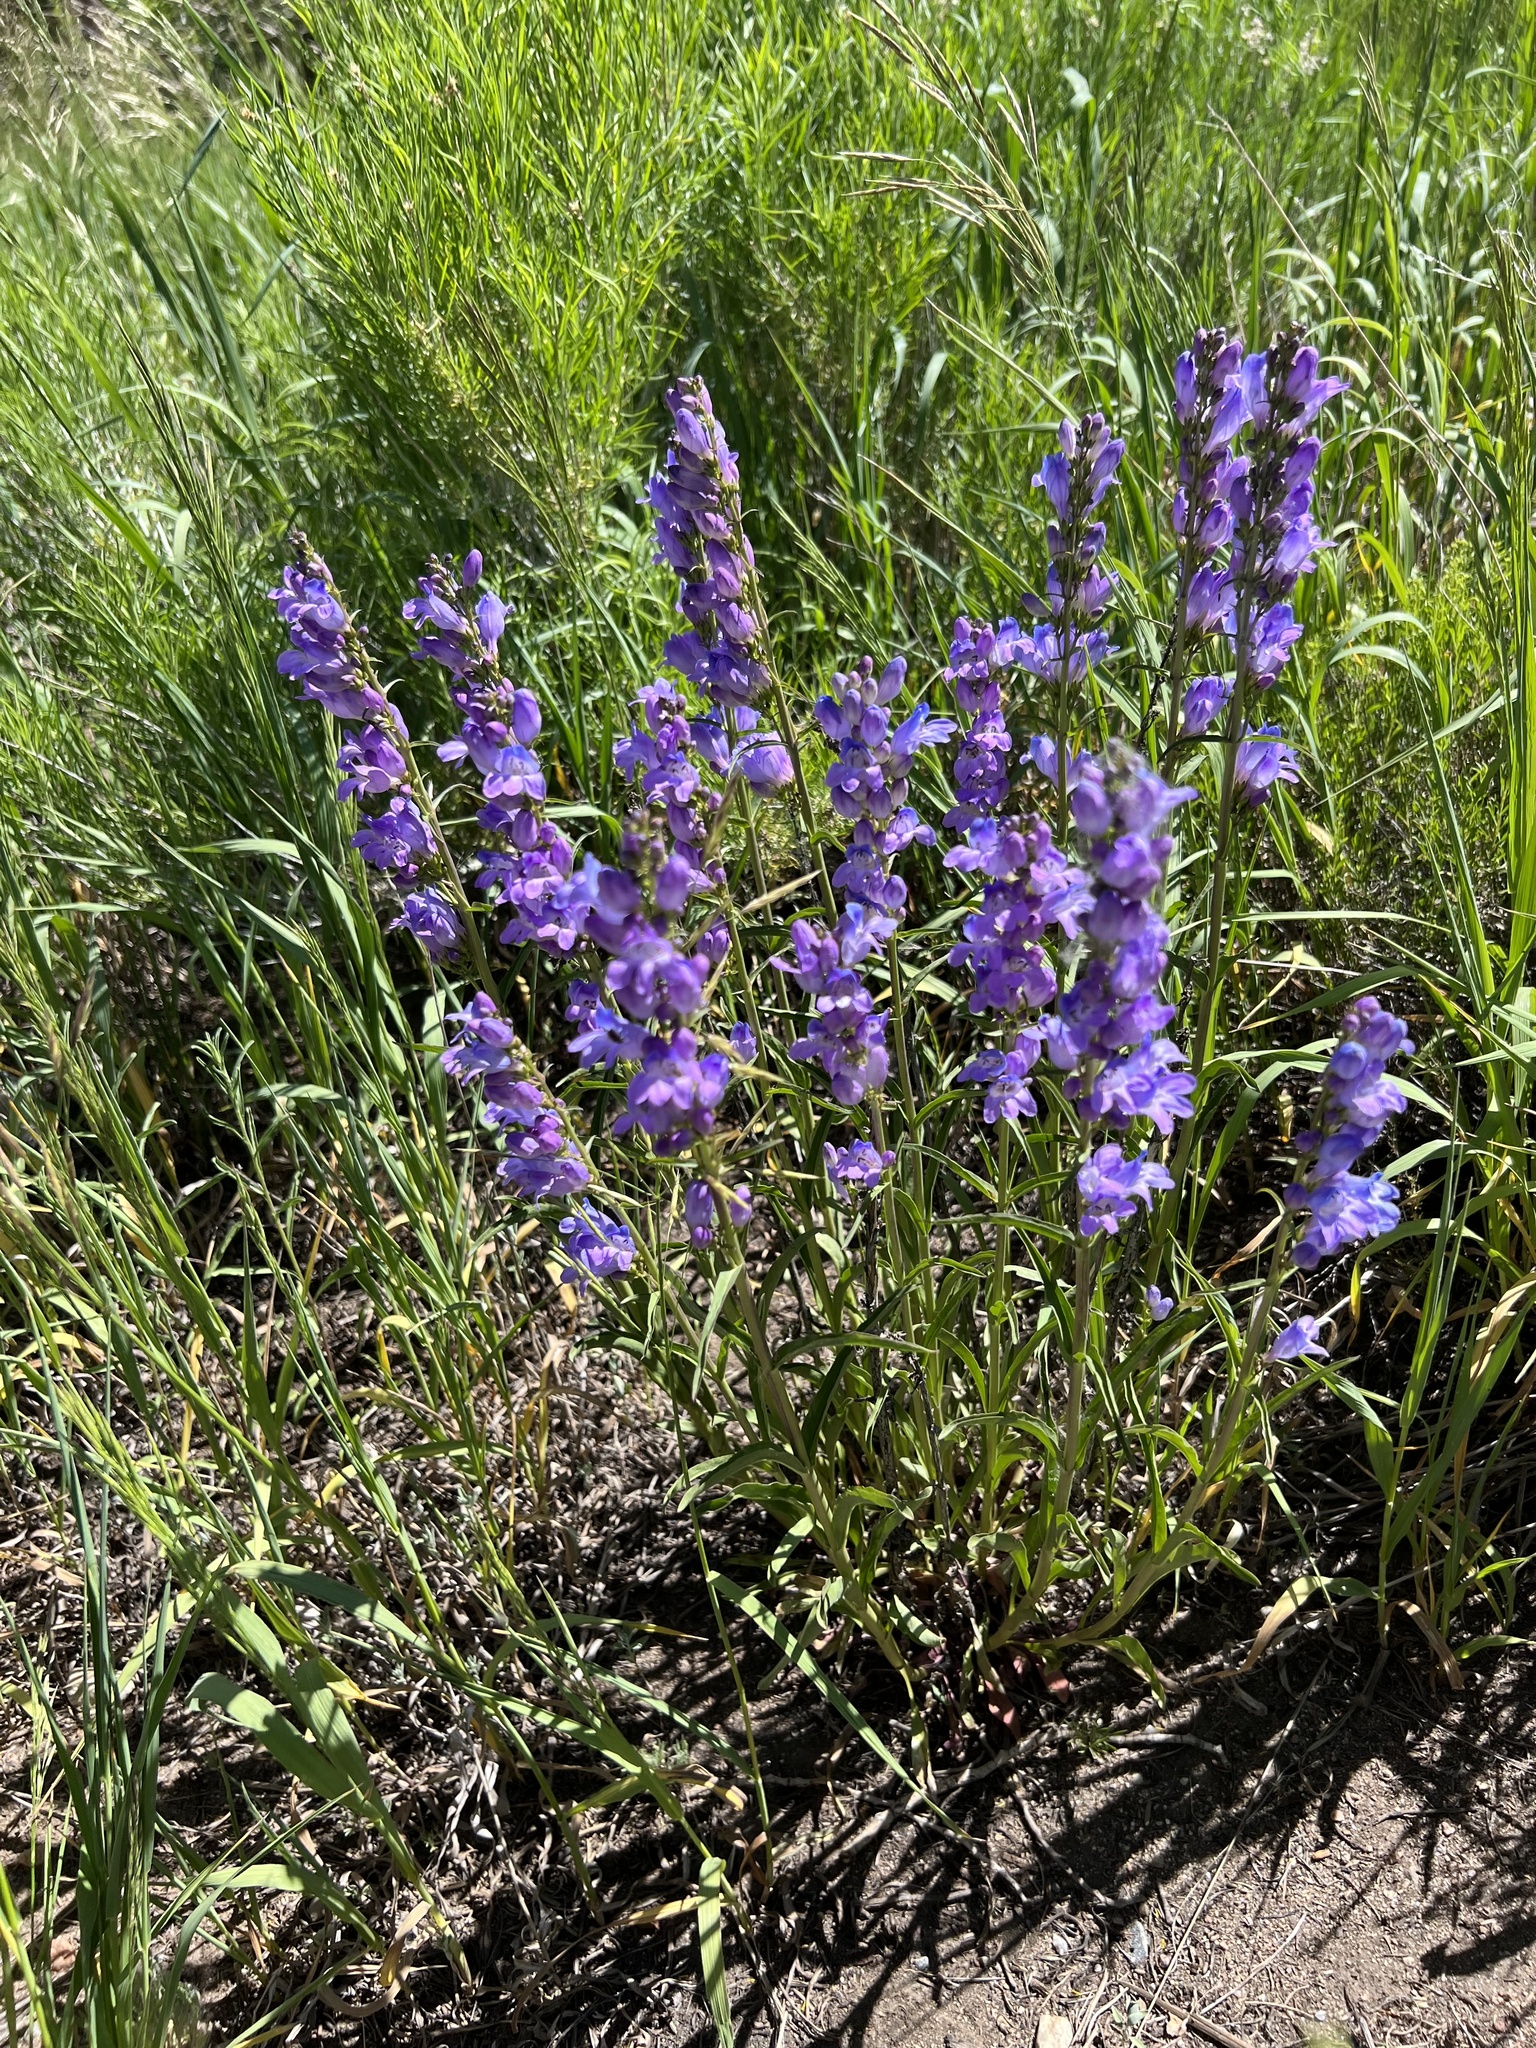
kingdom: Plantae
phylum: Tracheophyta
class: Magnoliopsida
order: Lamiales
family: Plantaginaceae
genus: Penstemon
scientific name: Penstemon strictus
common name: Rocky mountain penstemon
